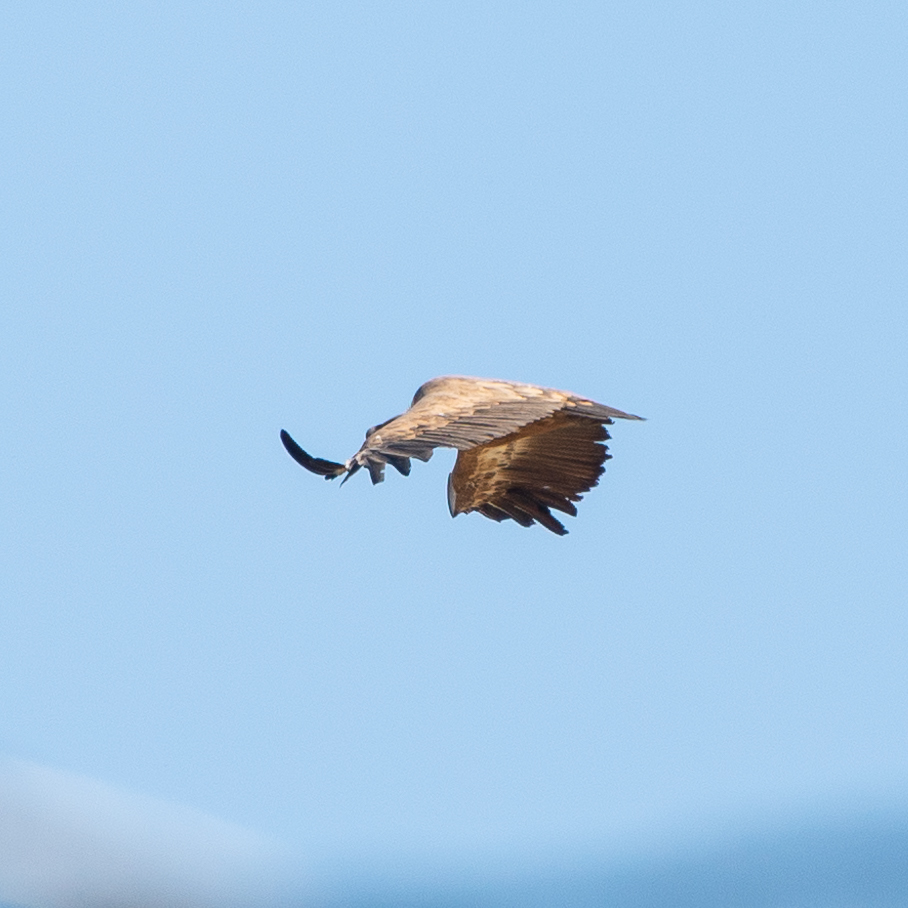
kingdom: Animalia
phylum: Chordata
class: Aves
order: Accipitriformes
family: Accipitridae
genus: Gyps
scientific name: Gyps fulvus
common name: Griffon vulture
